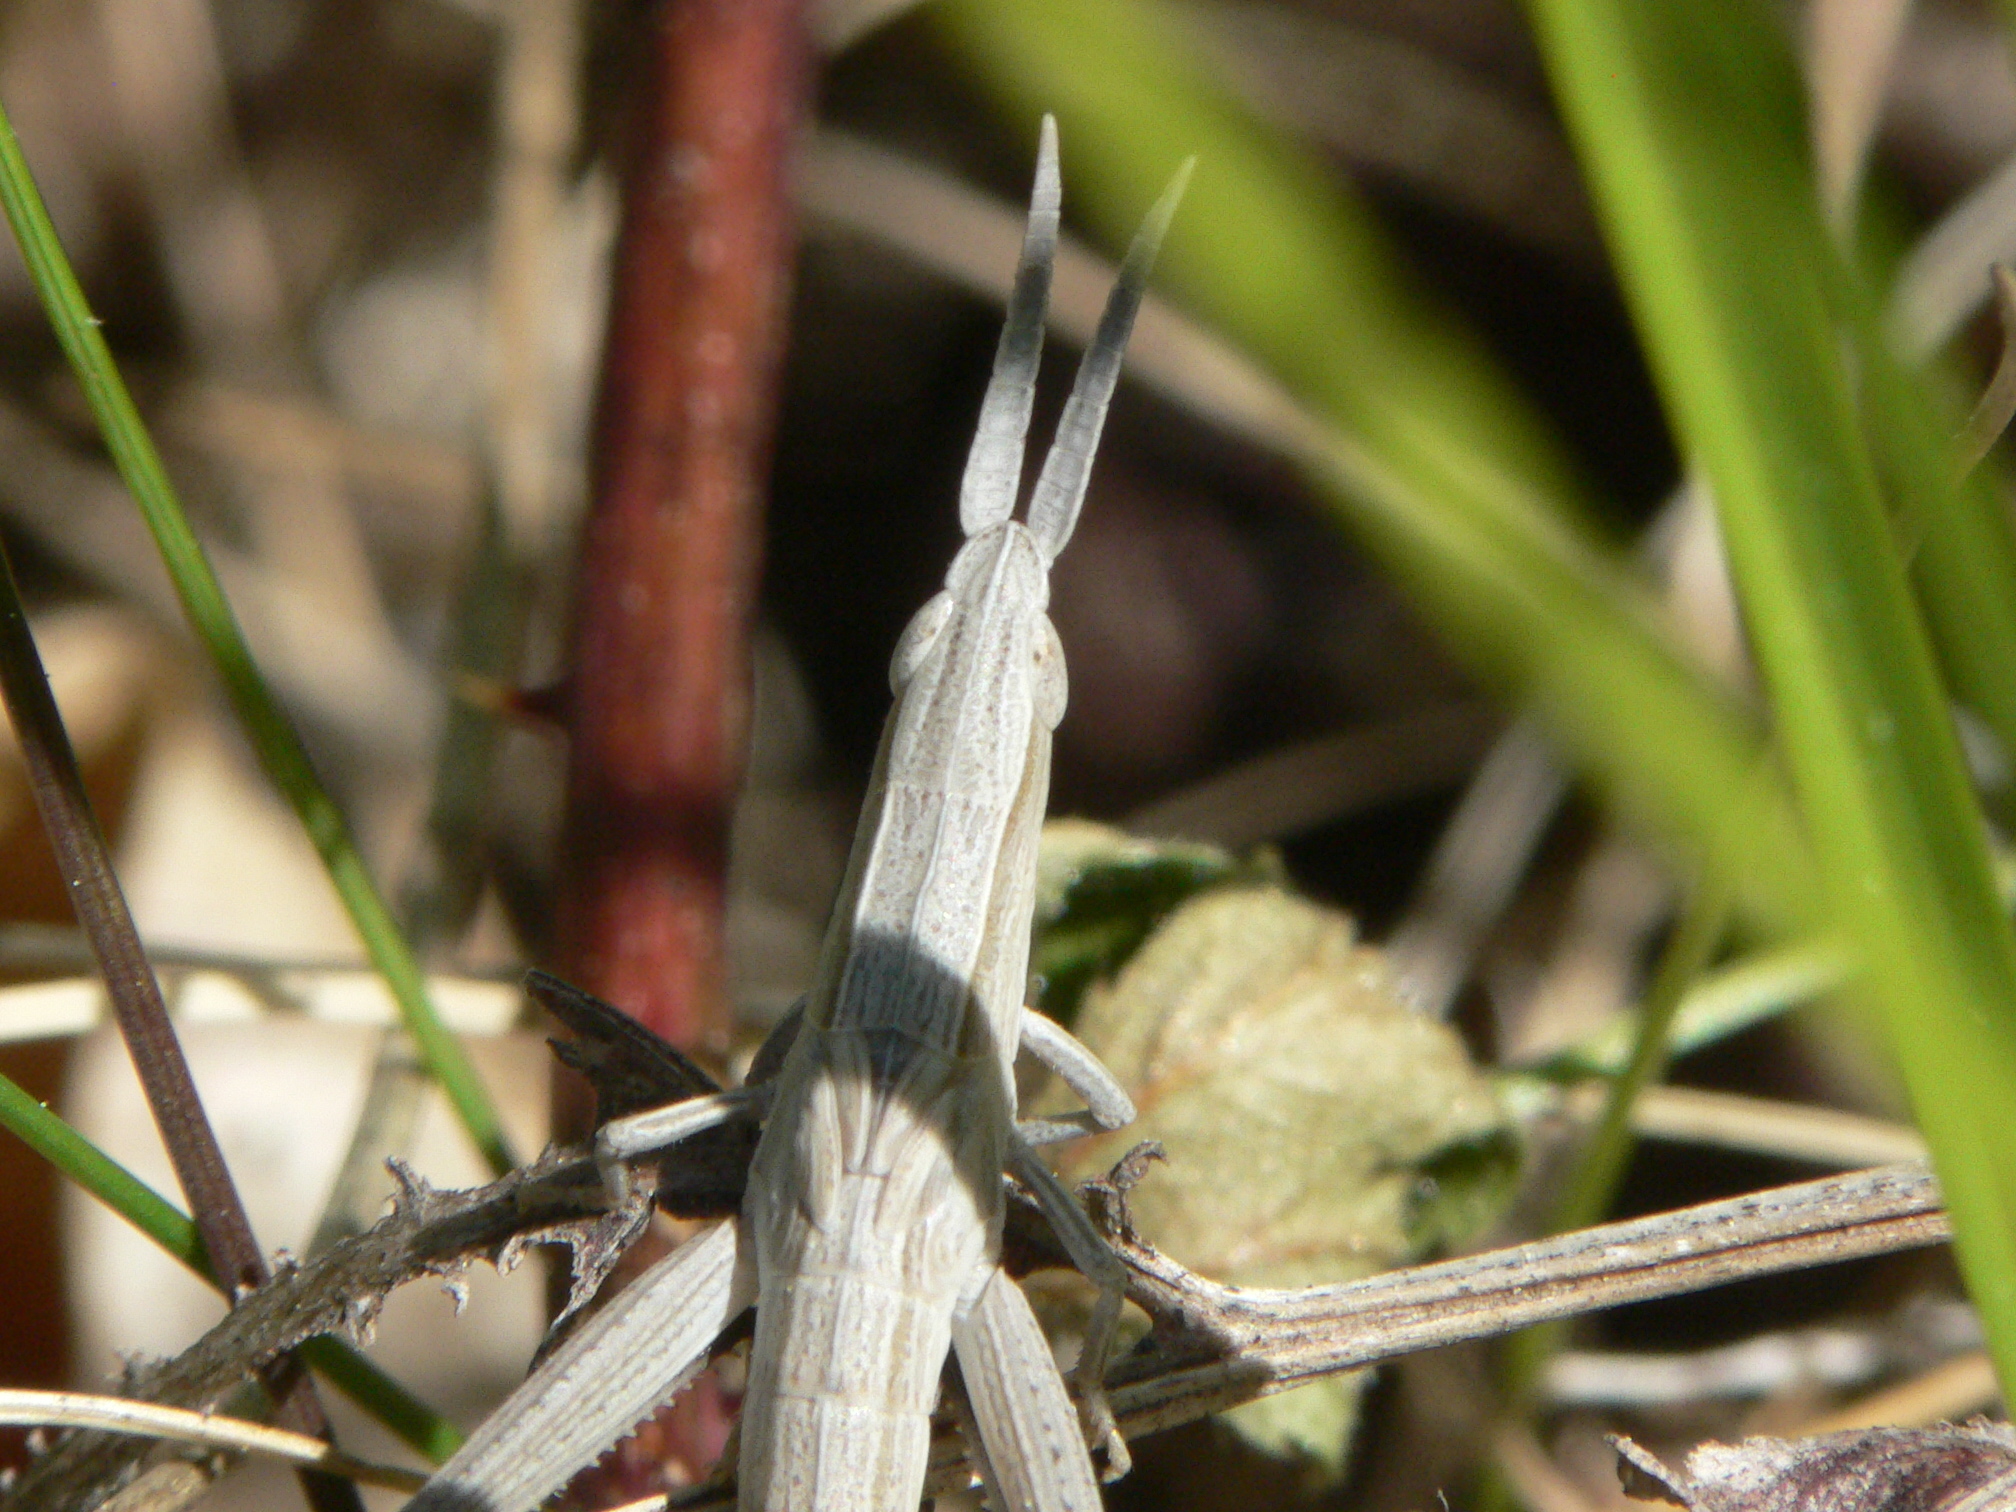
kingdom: Animalia
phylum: Arthropoda
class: Insecta
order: Orthoptera
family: Acrididae
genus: Pseudopomala
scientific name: Pseudopomala brachyptera
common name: Bunchgrass grasshopper
